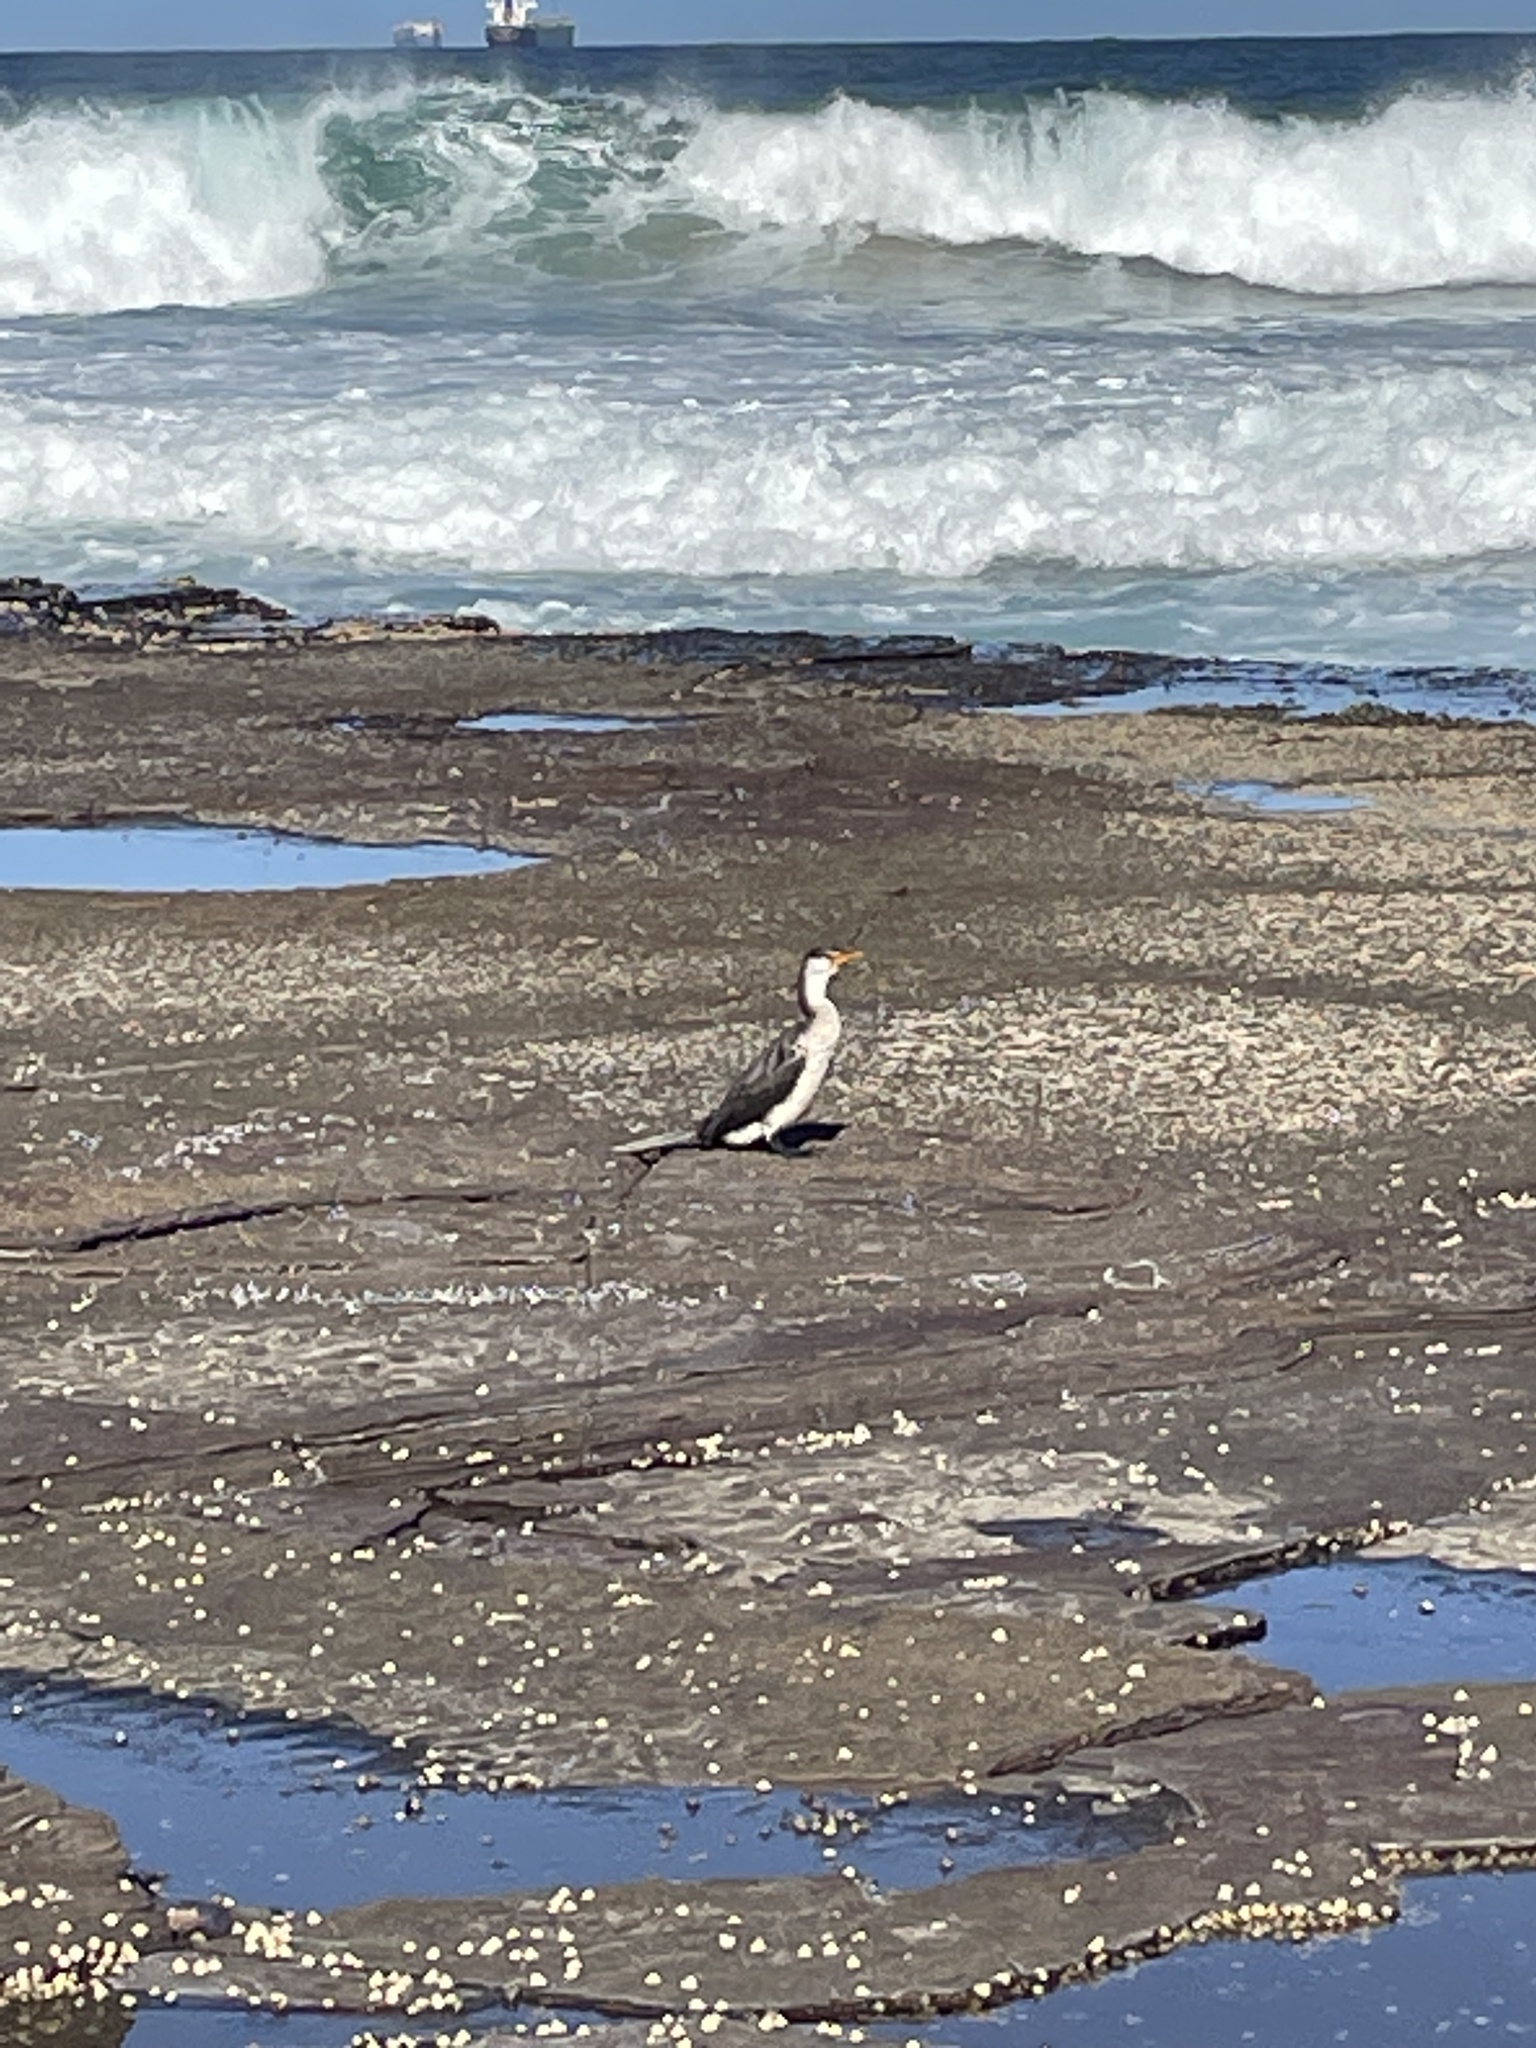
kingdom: Animalia
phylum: Chordata
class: Aves
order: Suliformes
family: Phalacrocoracidae
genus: Microcarbo
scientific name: Microcarbo melanoleucos
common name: Little pied cormorant
